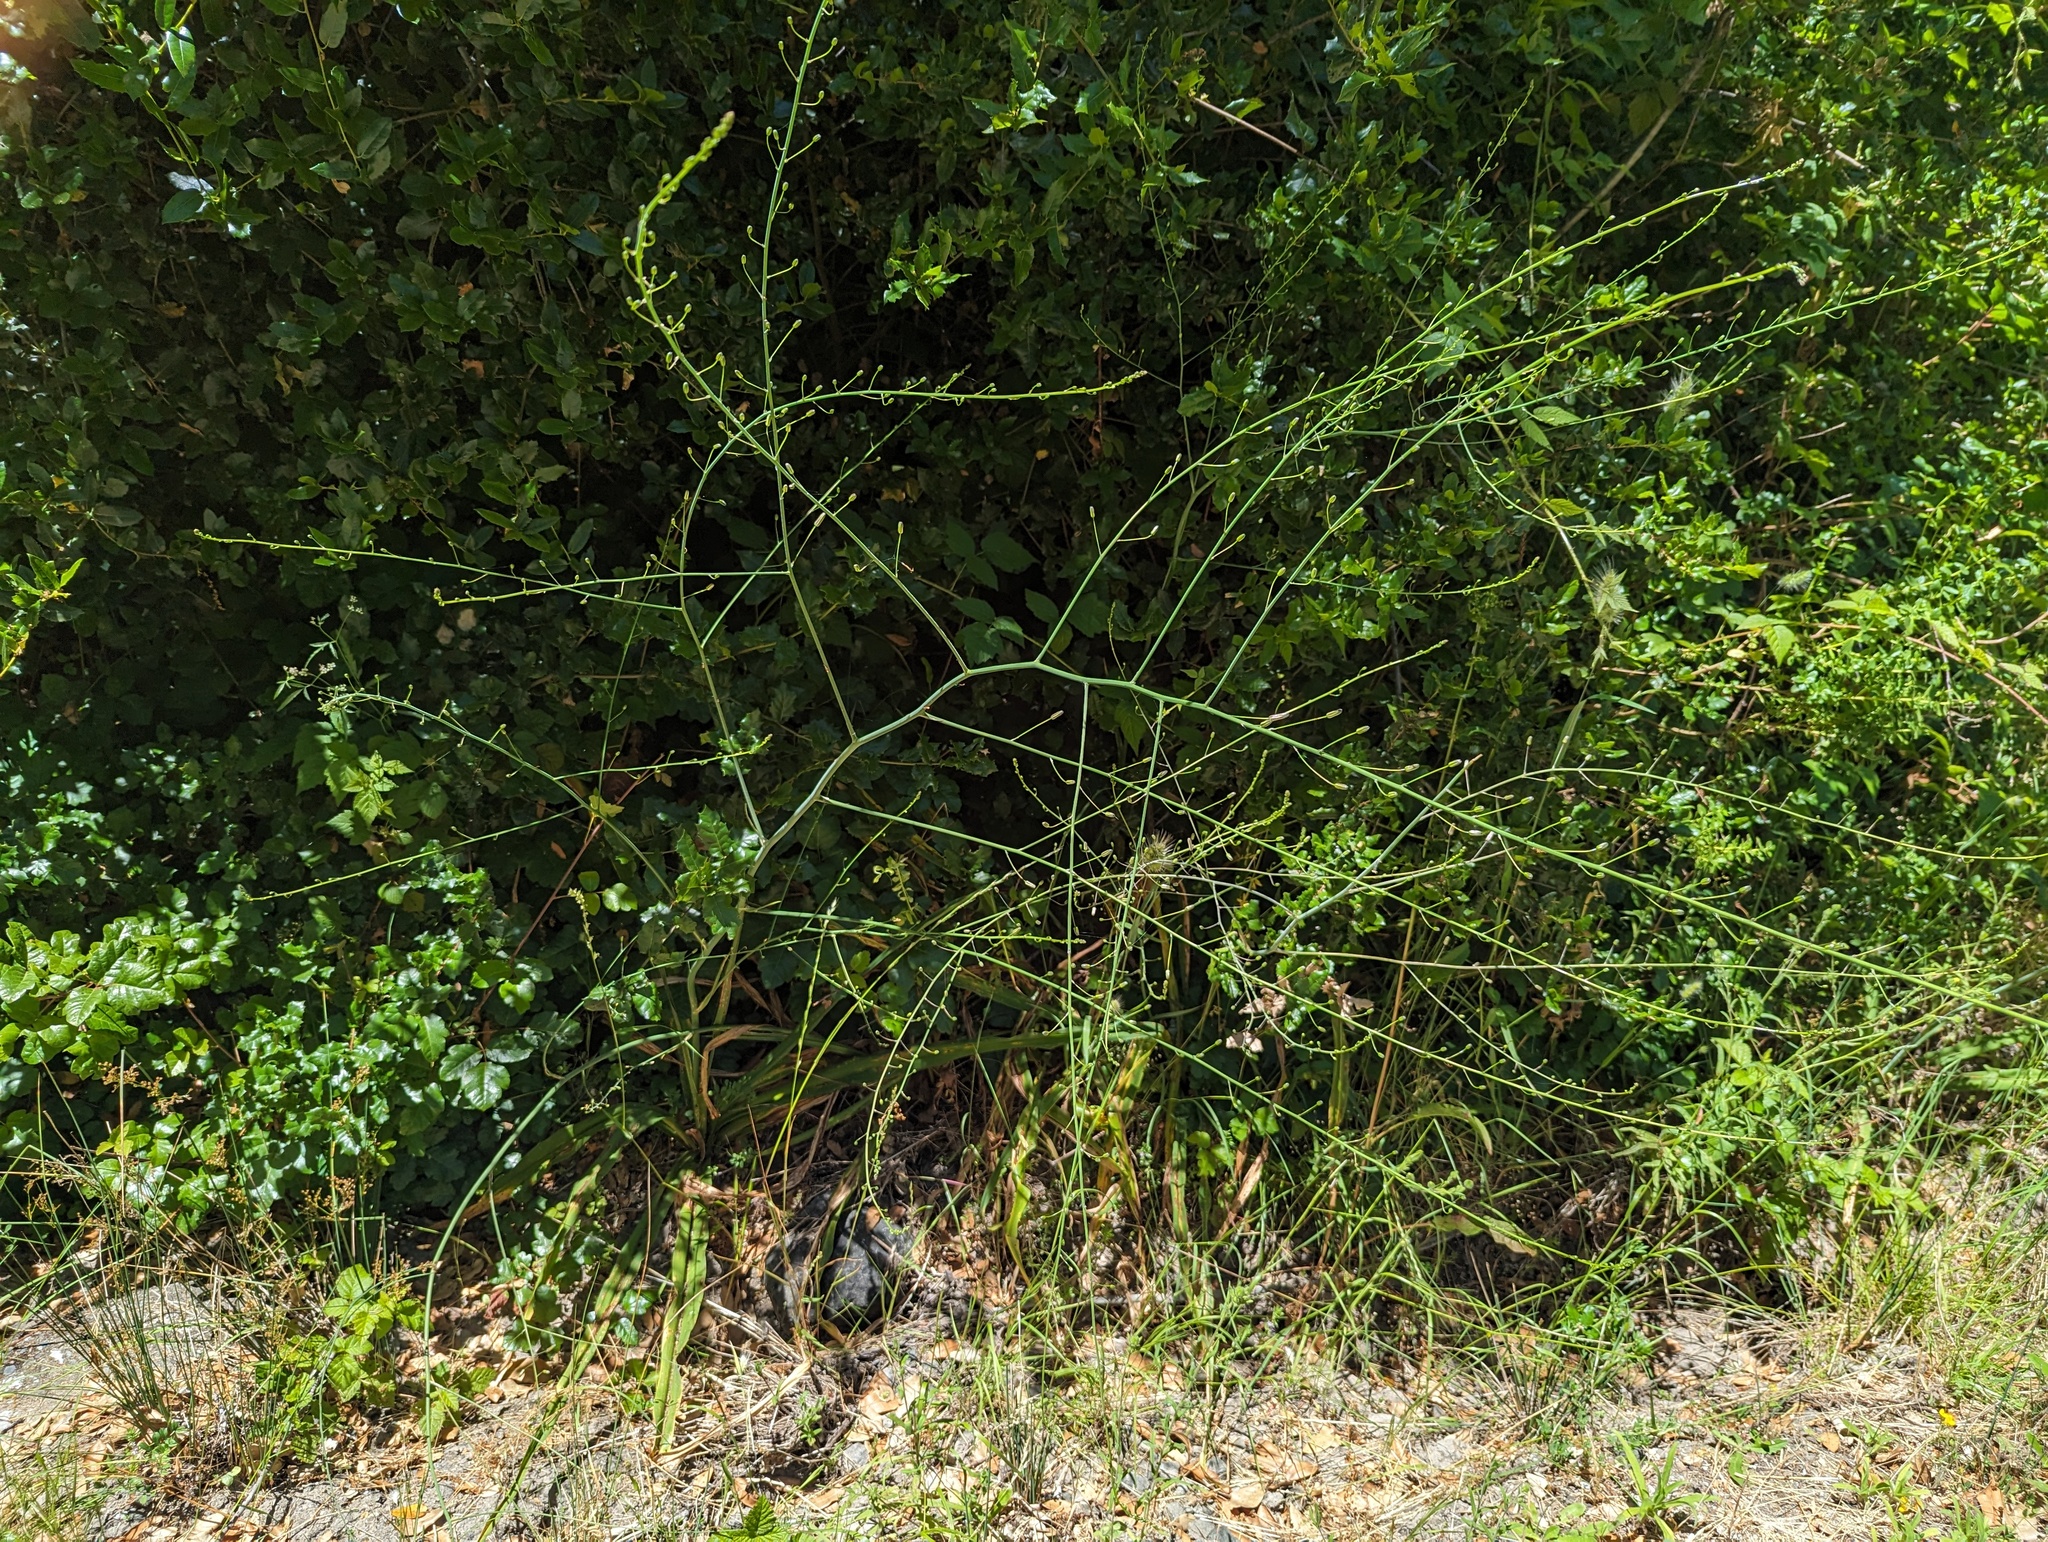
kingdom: Plantae
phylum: Tracheophyta
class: Liliopsida
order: Asparagales
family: Asparagaceae
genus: Chlorogalum
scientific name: Chlorogalum pomeridianum
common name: Amole
